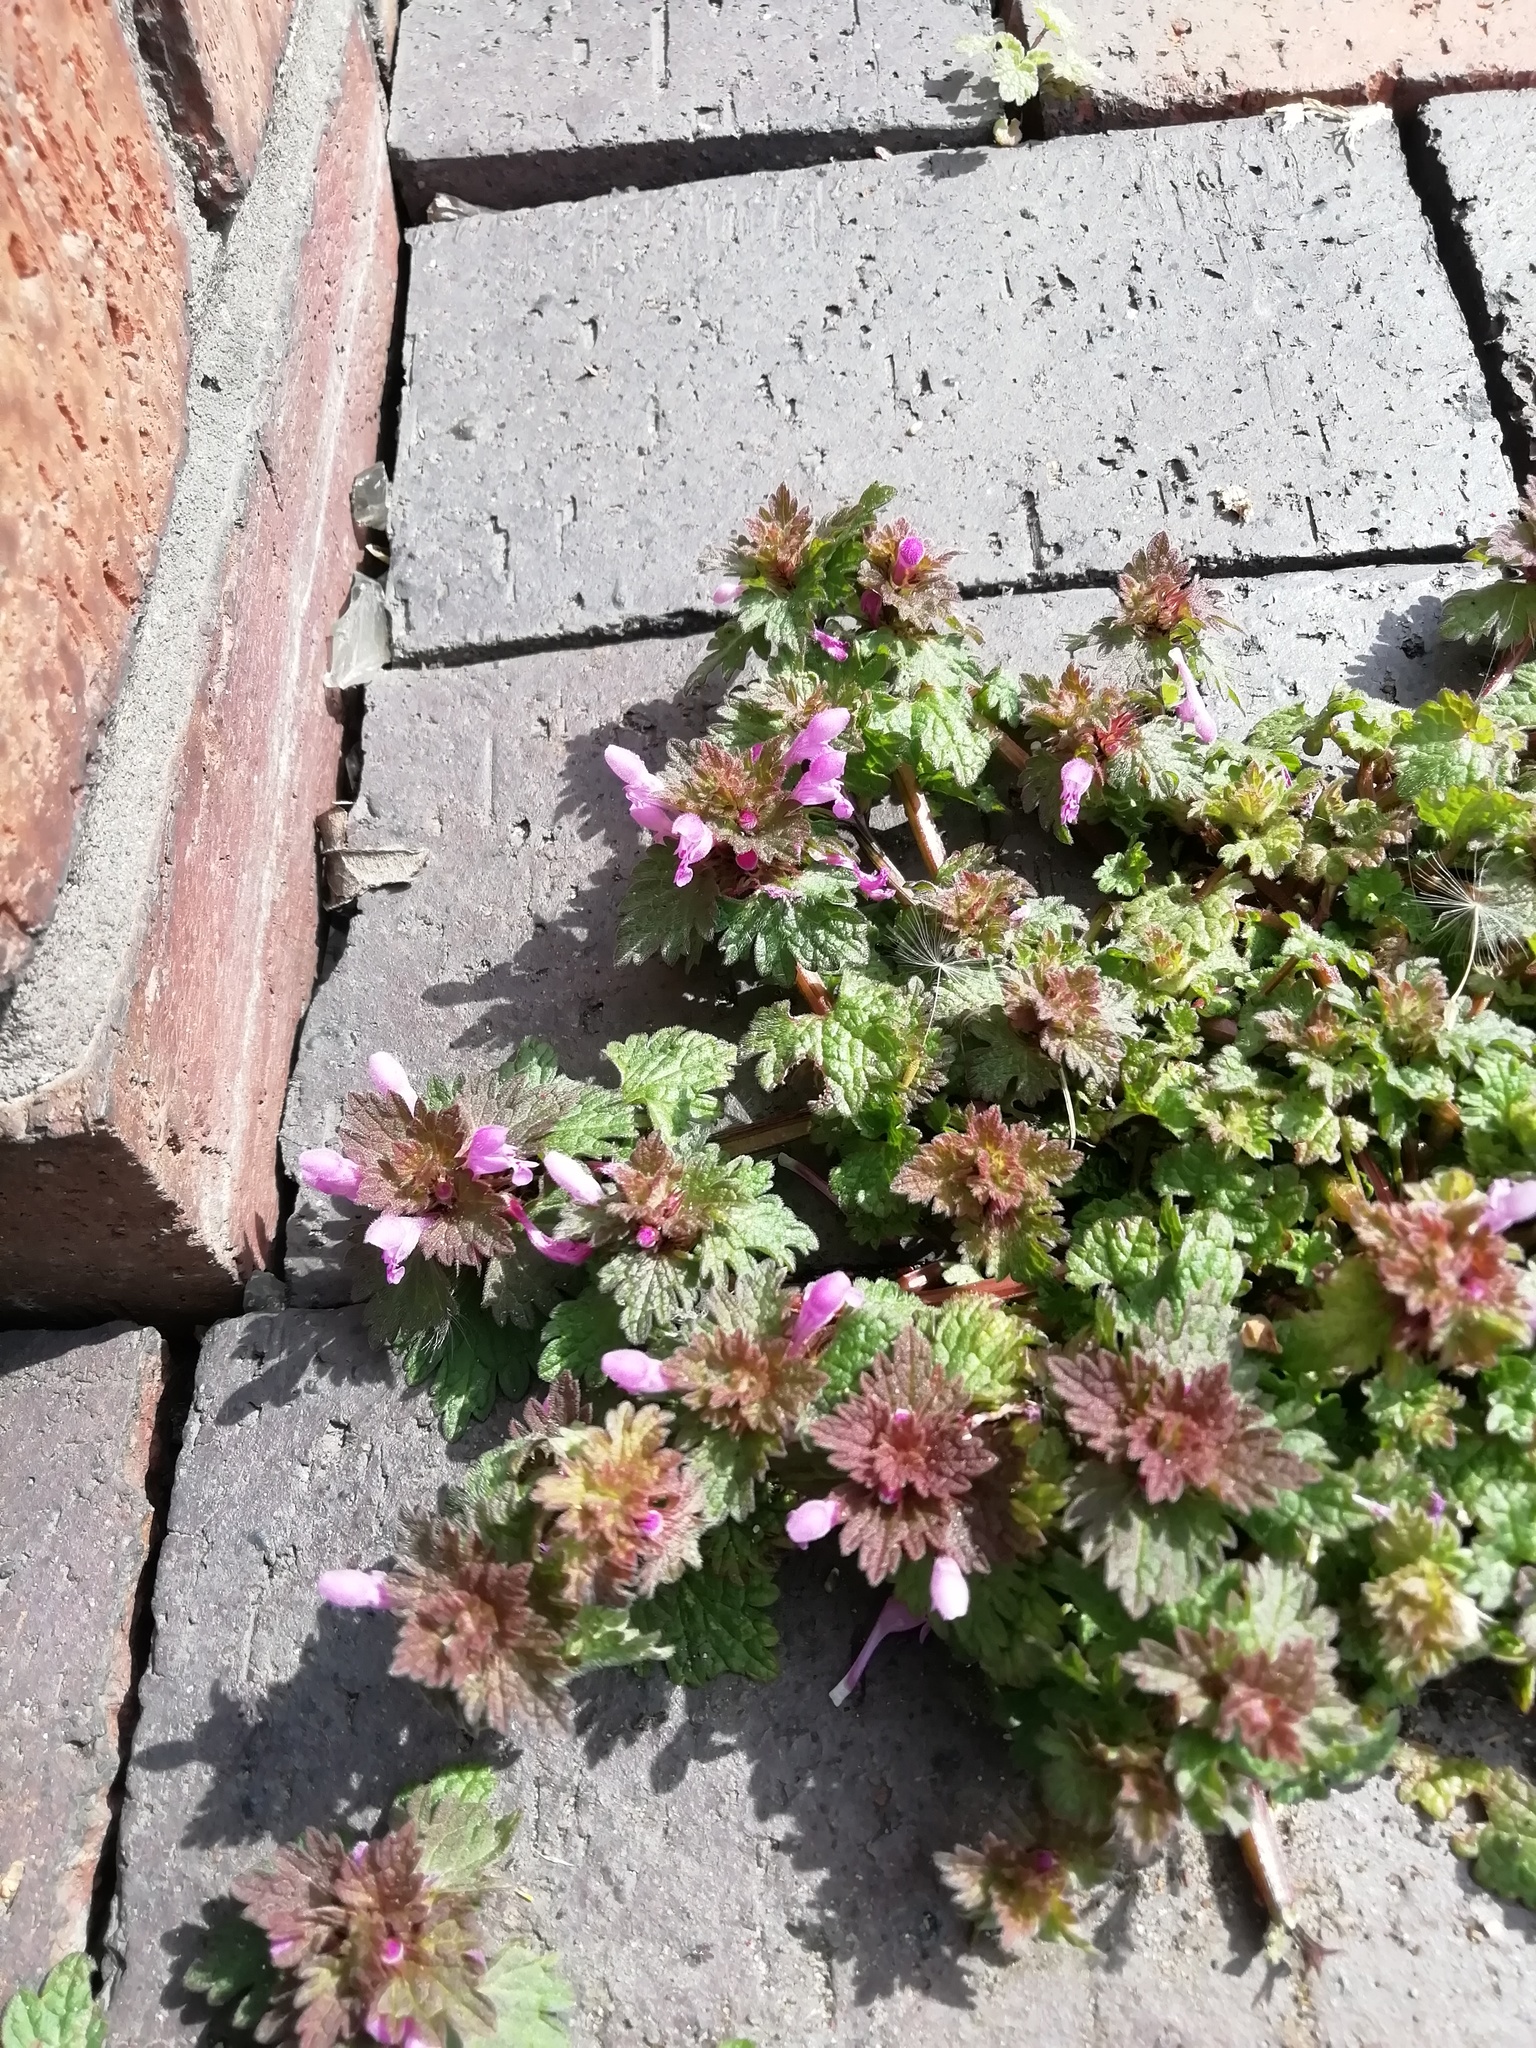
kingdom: Plantae
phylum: Tracheophyta
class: Magnoliopsida
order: Lamiales
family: Lamiaceae
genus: Lamium
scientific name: Lamium hybridum
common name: Cut-leaved dead-nettle
